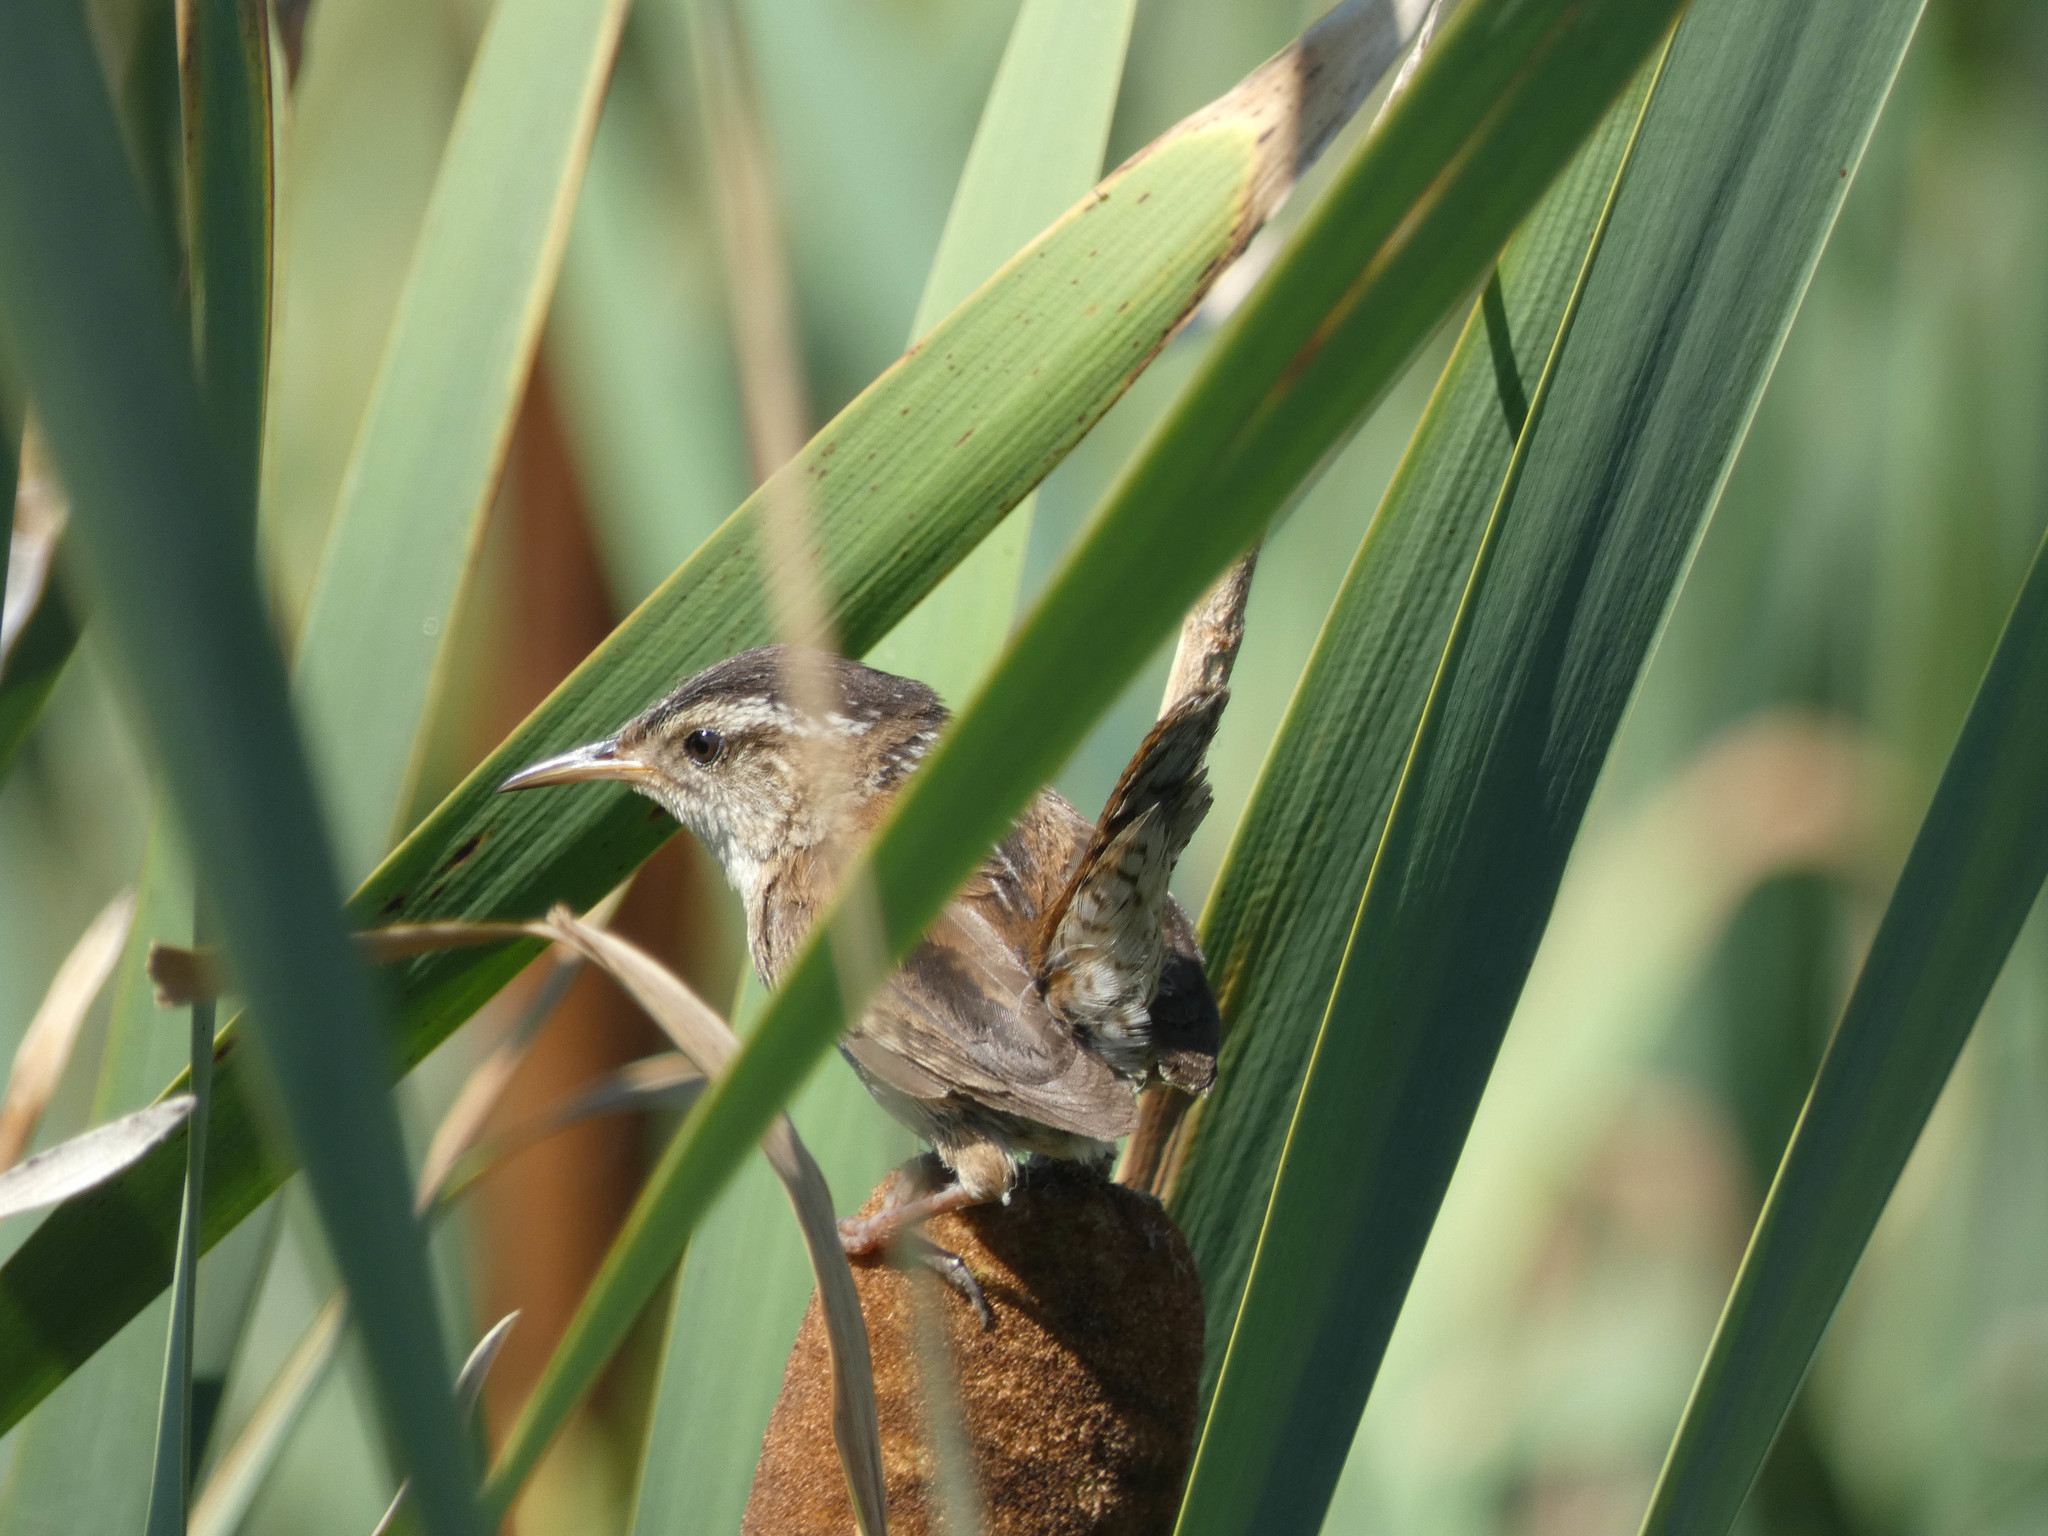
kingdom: Animalia
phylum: Chordata
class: Aves
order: Passeriformes
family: Troglodytidae
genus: Cistothorus
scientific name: Cistothorus palustris
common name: Marsh wren
